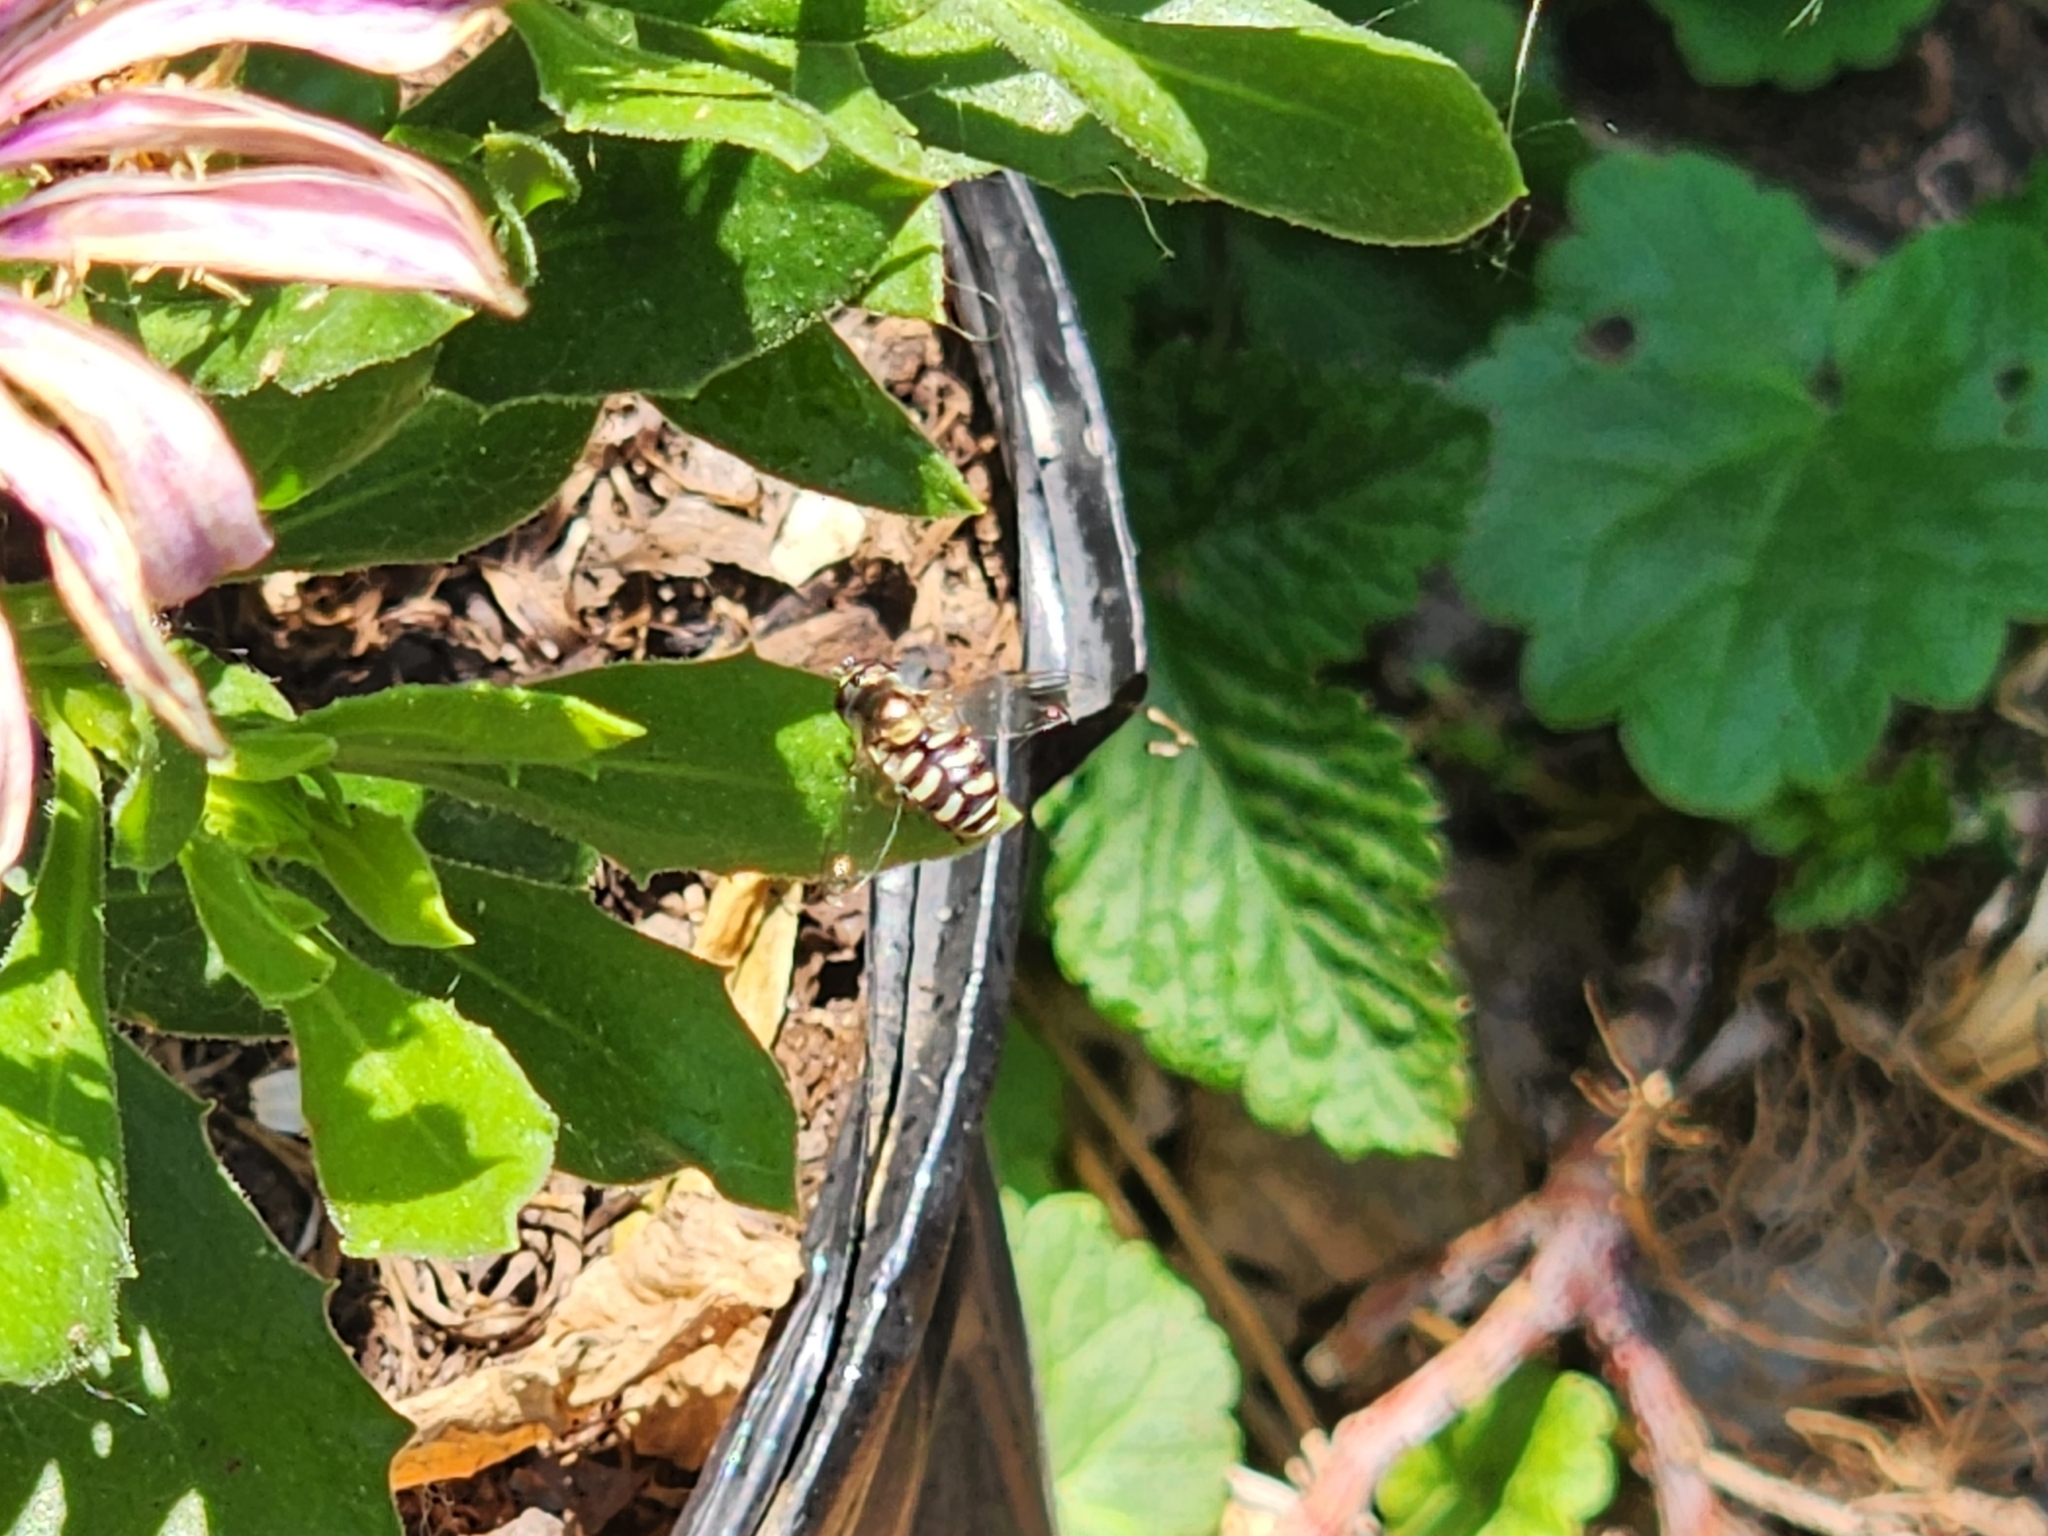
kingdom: Animalia
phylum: Arthropoda
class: Insecta
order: Diptera
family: Syrphidae
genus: Eupeodes
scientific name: Eupeodes volucris
